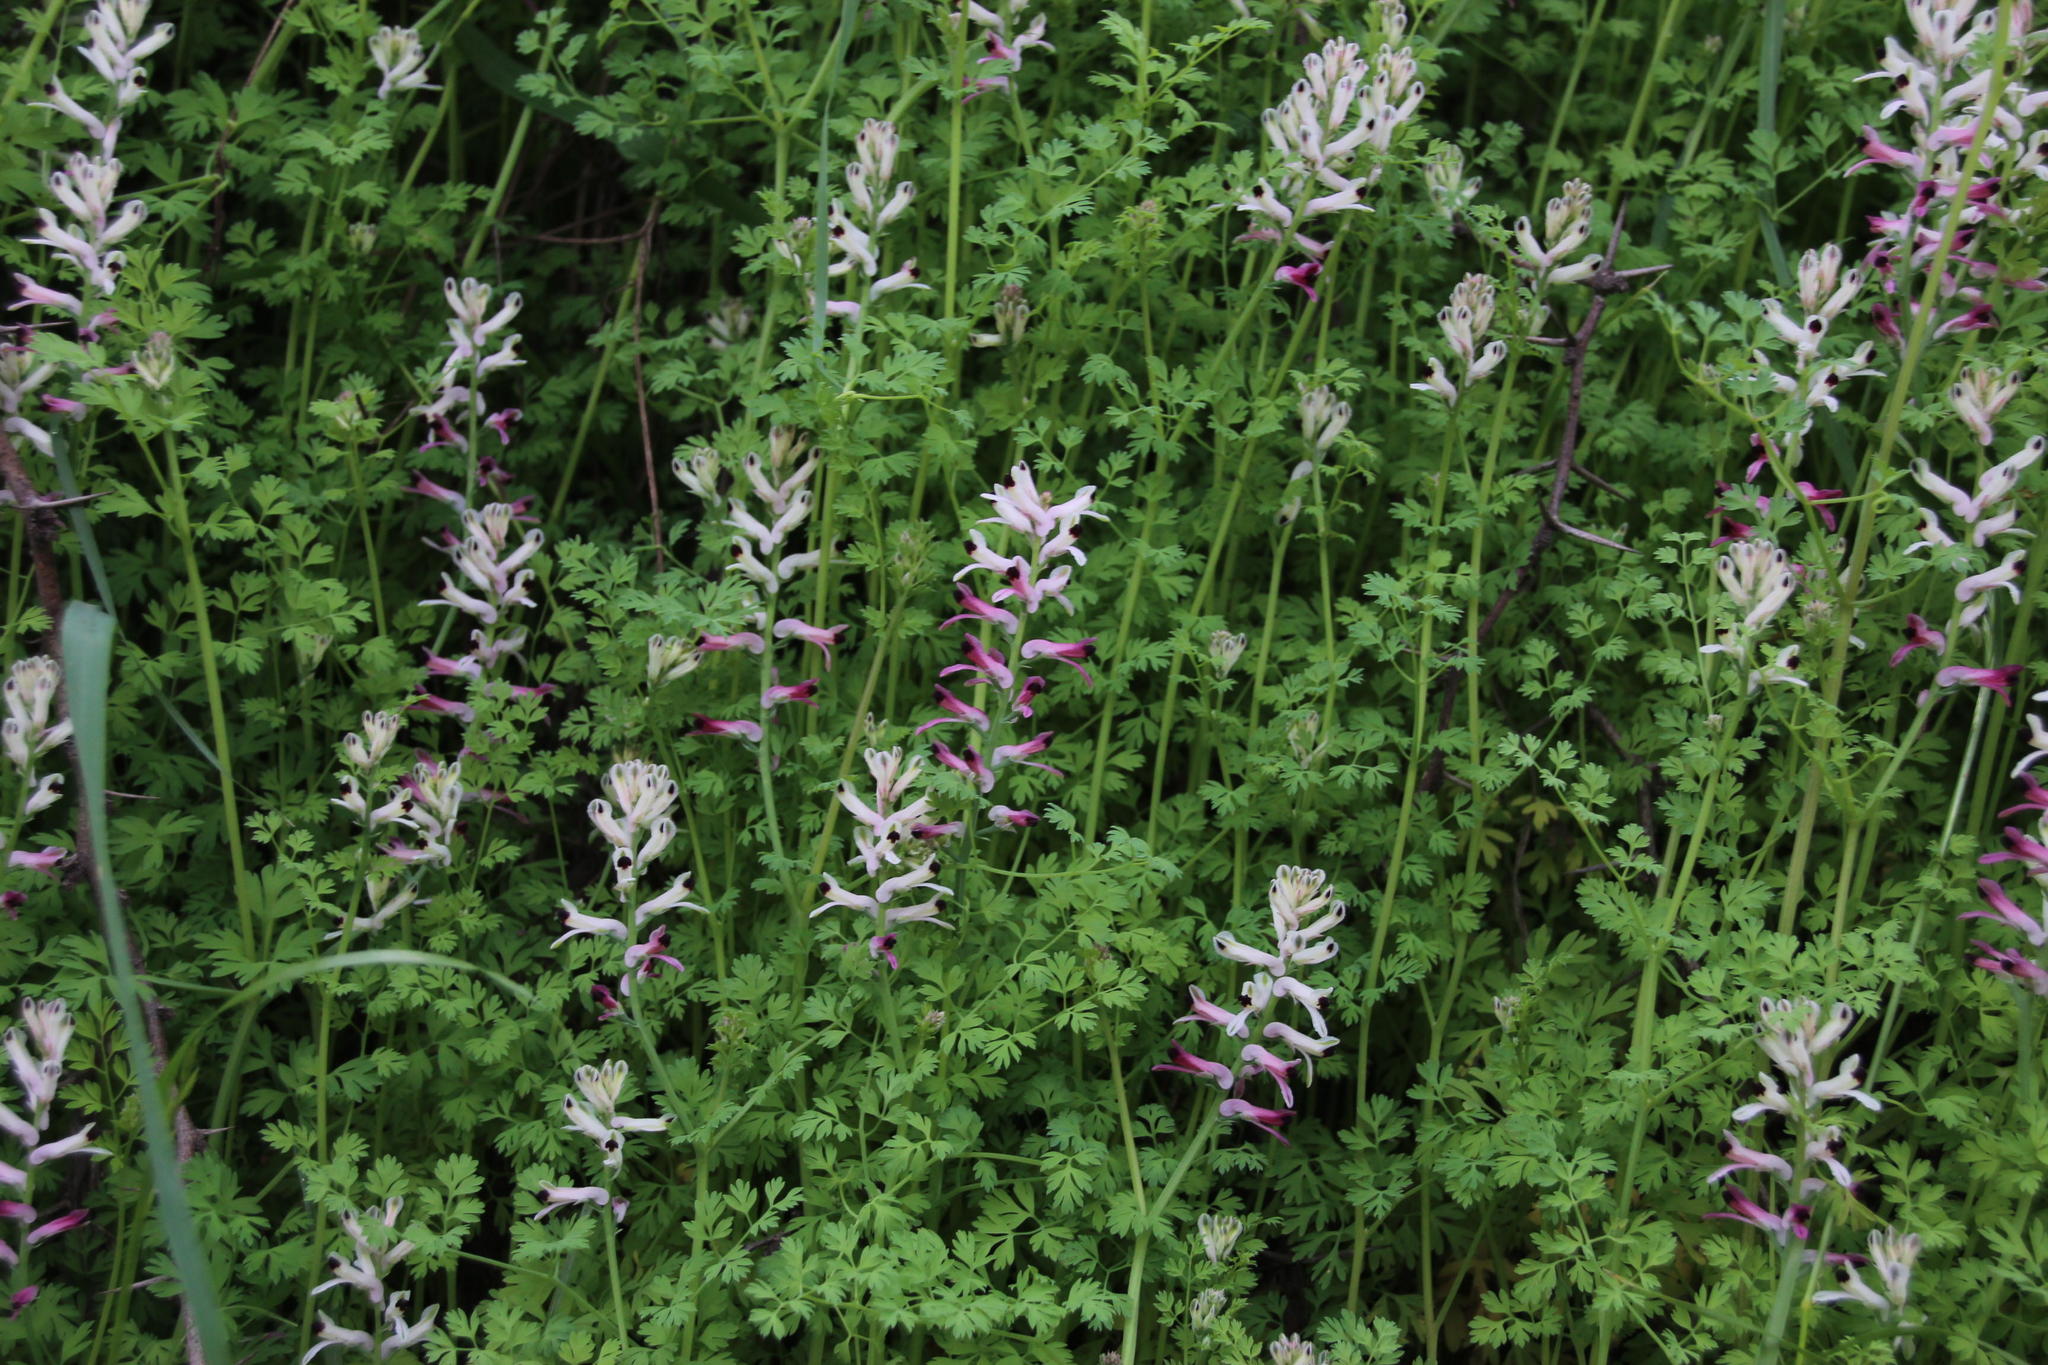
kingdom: Plantae
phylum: Tracheophyta
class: Magnoliopsida
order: Ranunculales
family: Papaveraceae
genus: Fumaria
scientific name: Fumaria capreolata
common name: White ramping-fumitory
